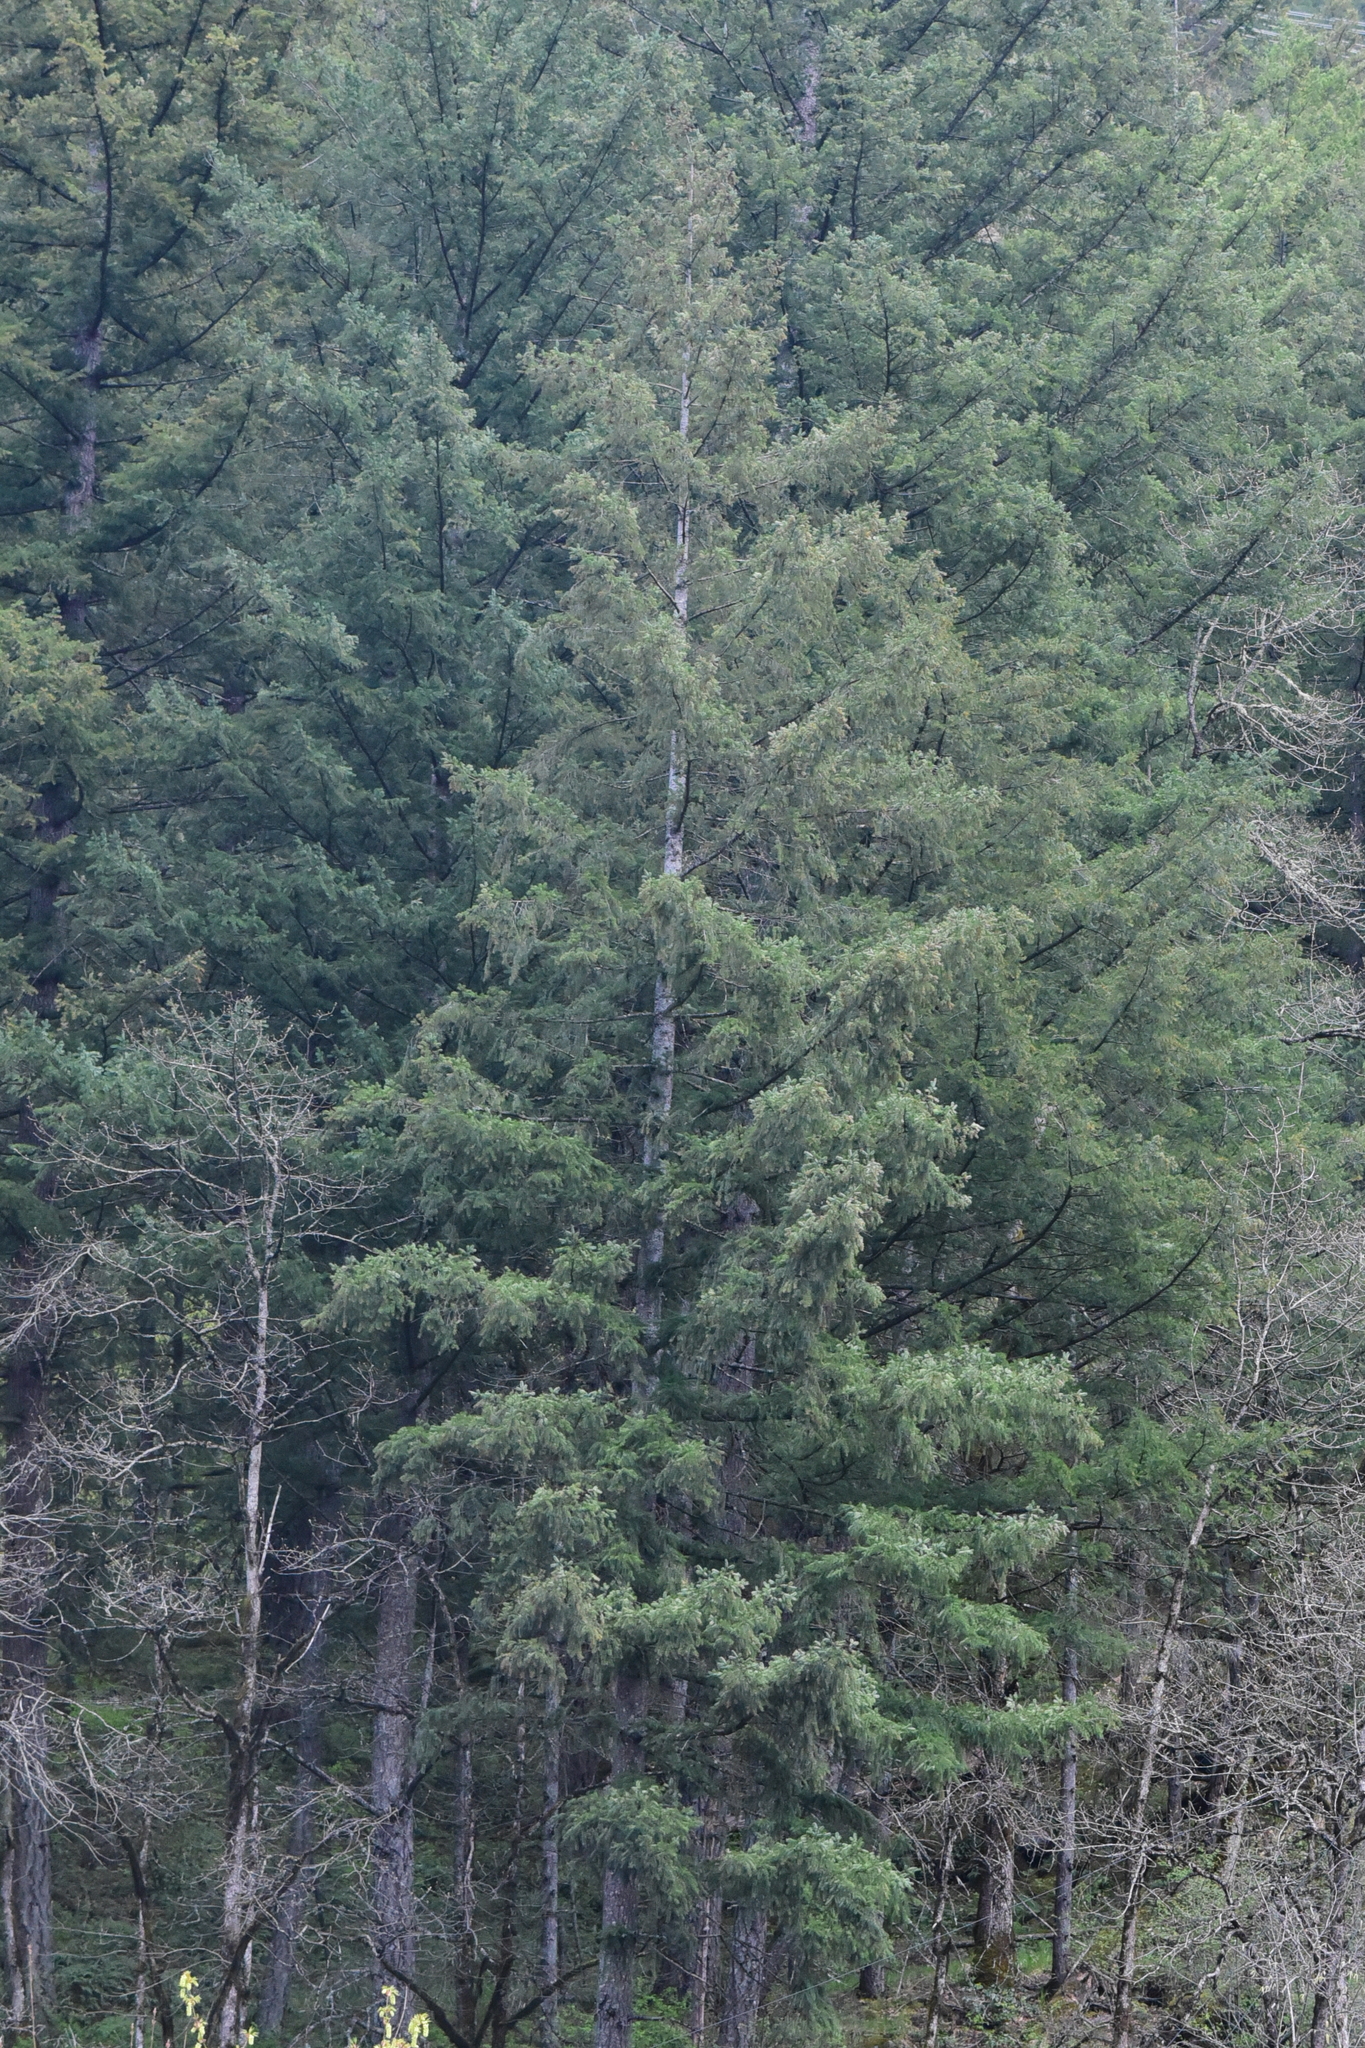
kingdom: Plantae
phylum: Tracheophyta
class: Pinopsida
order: Pinales
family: Pinaceae
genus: Pseudotsuga
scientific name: Pseudotsuga menziesii
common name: Douglas fir
